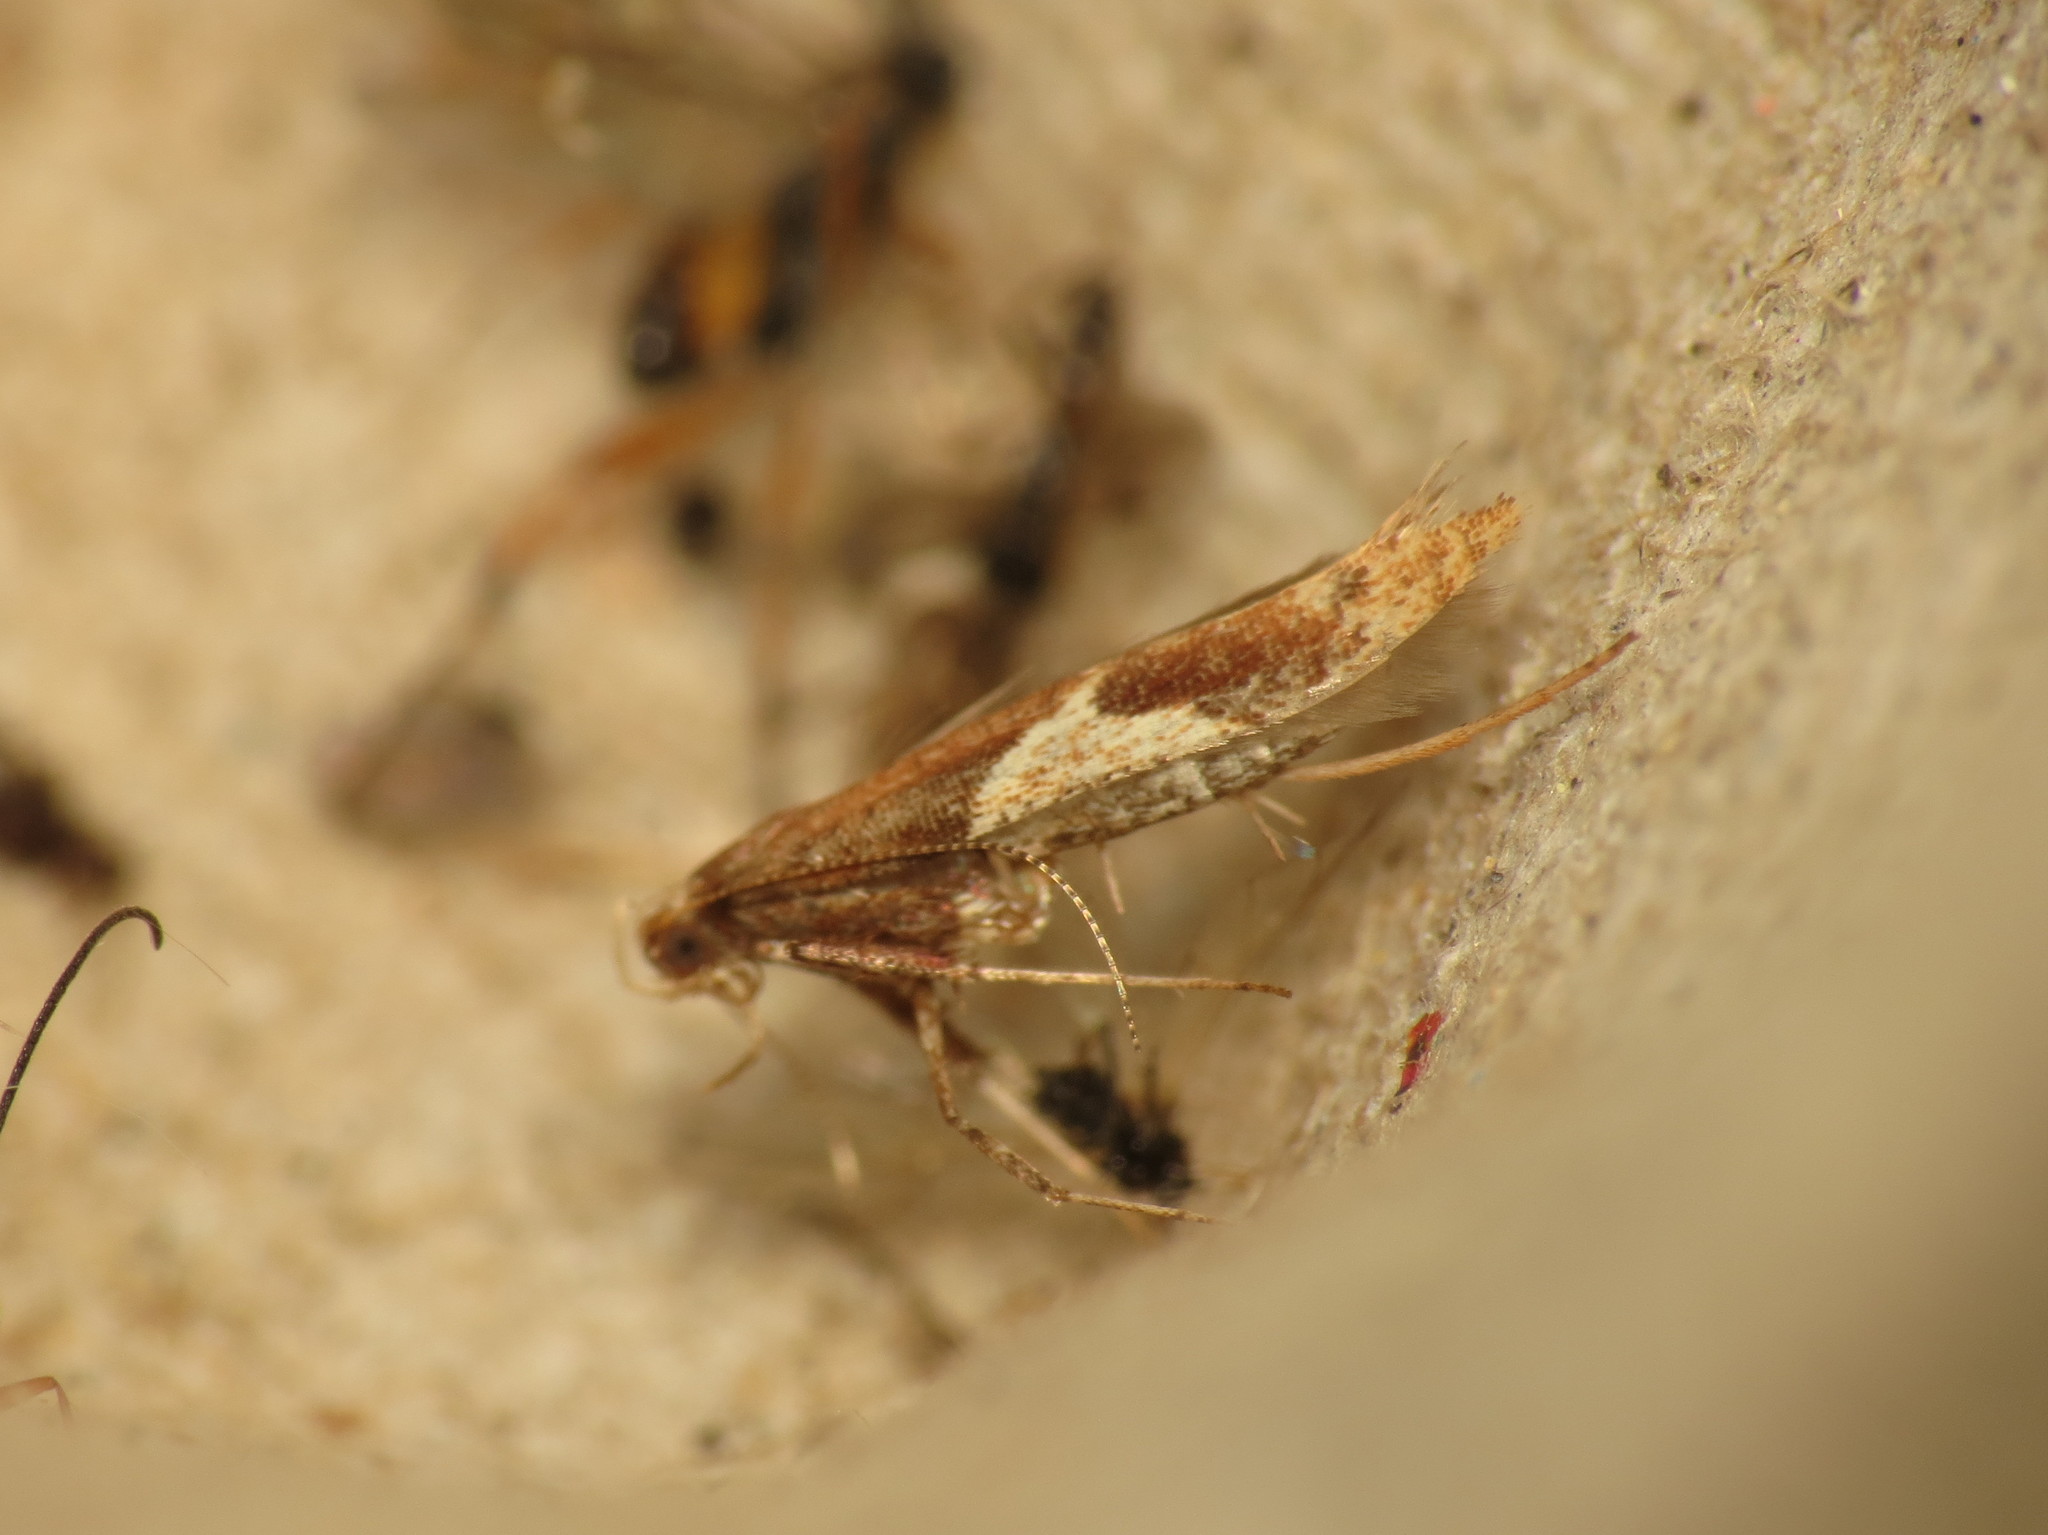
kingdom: Animalia
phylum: Arthropoda
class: Insecta
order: Lepidoptera
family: Gracillariidae
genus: Caloptilia
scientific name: Caloptilia stigmatella
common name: White-triangle slender
